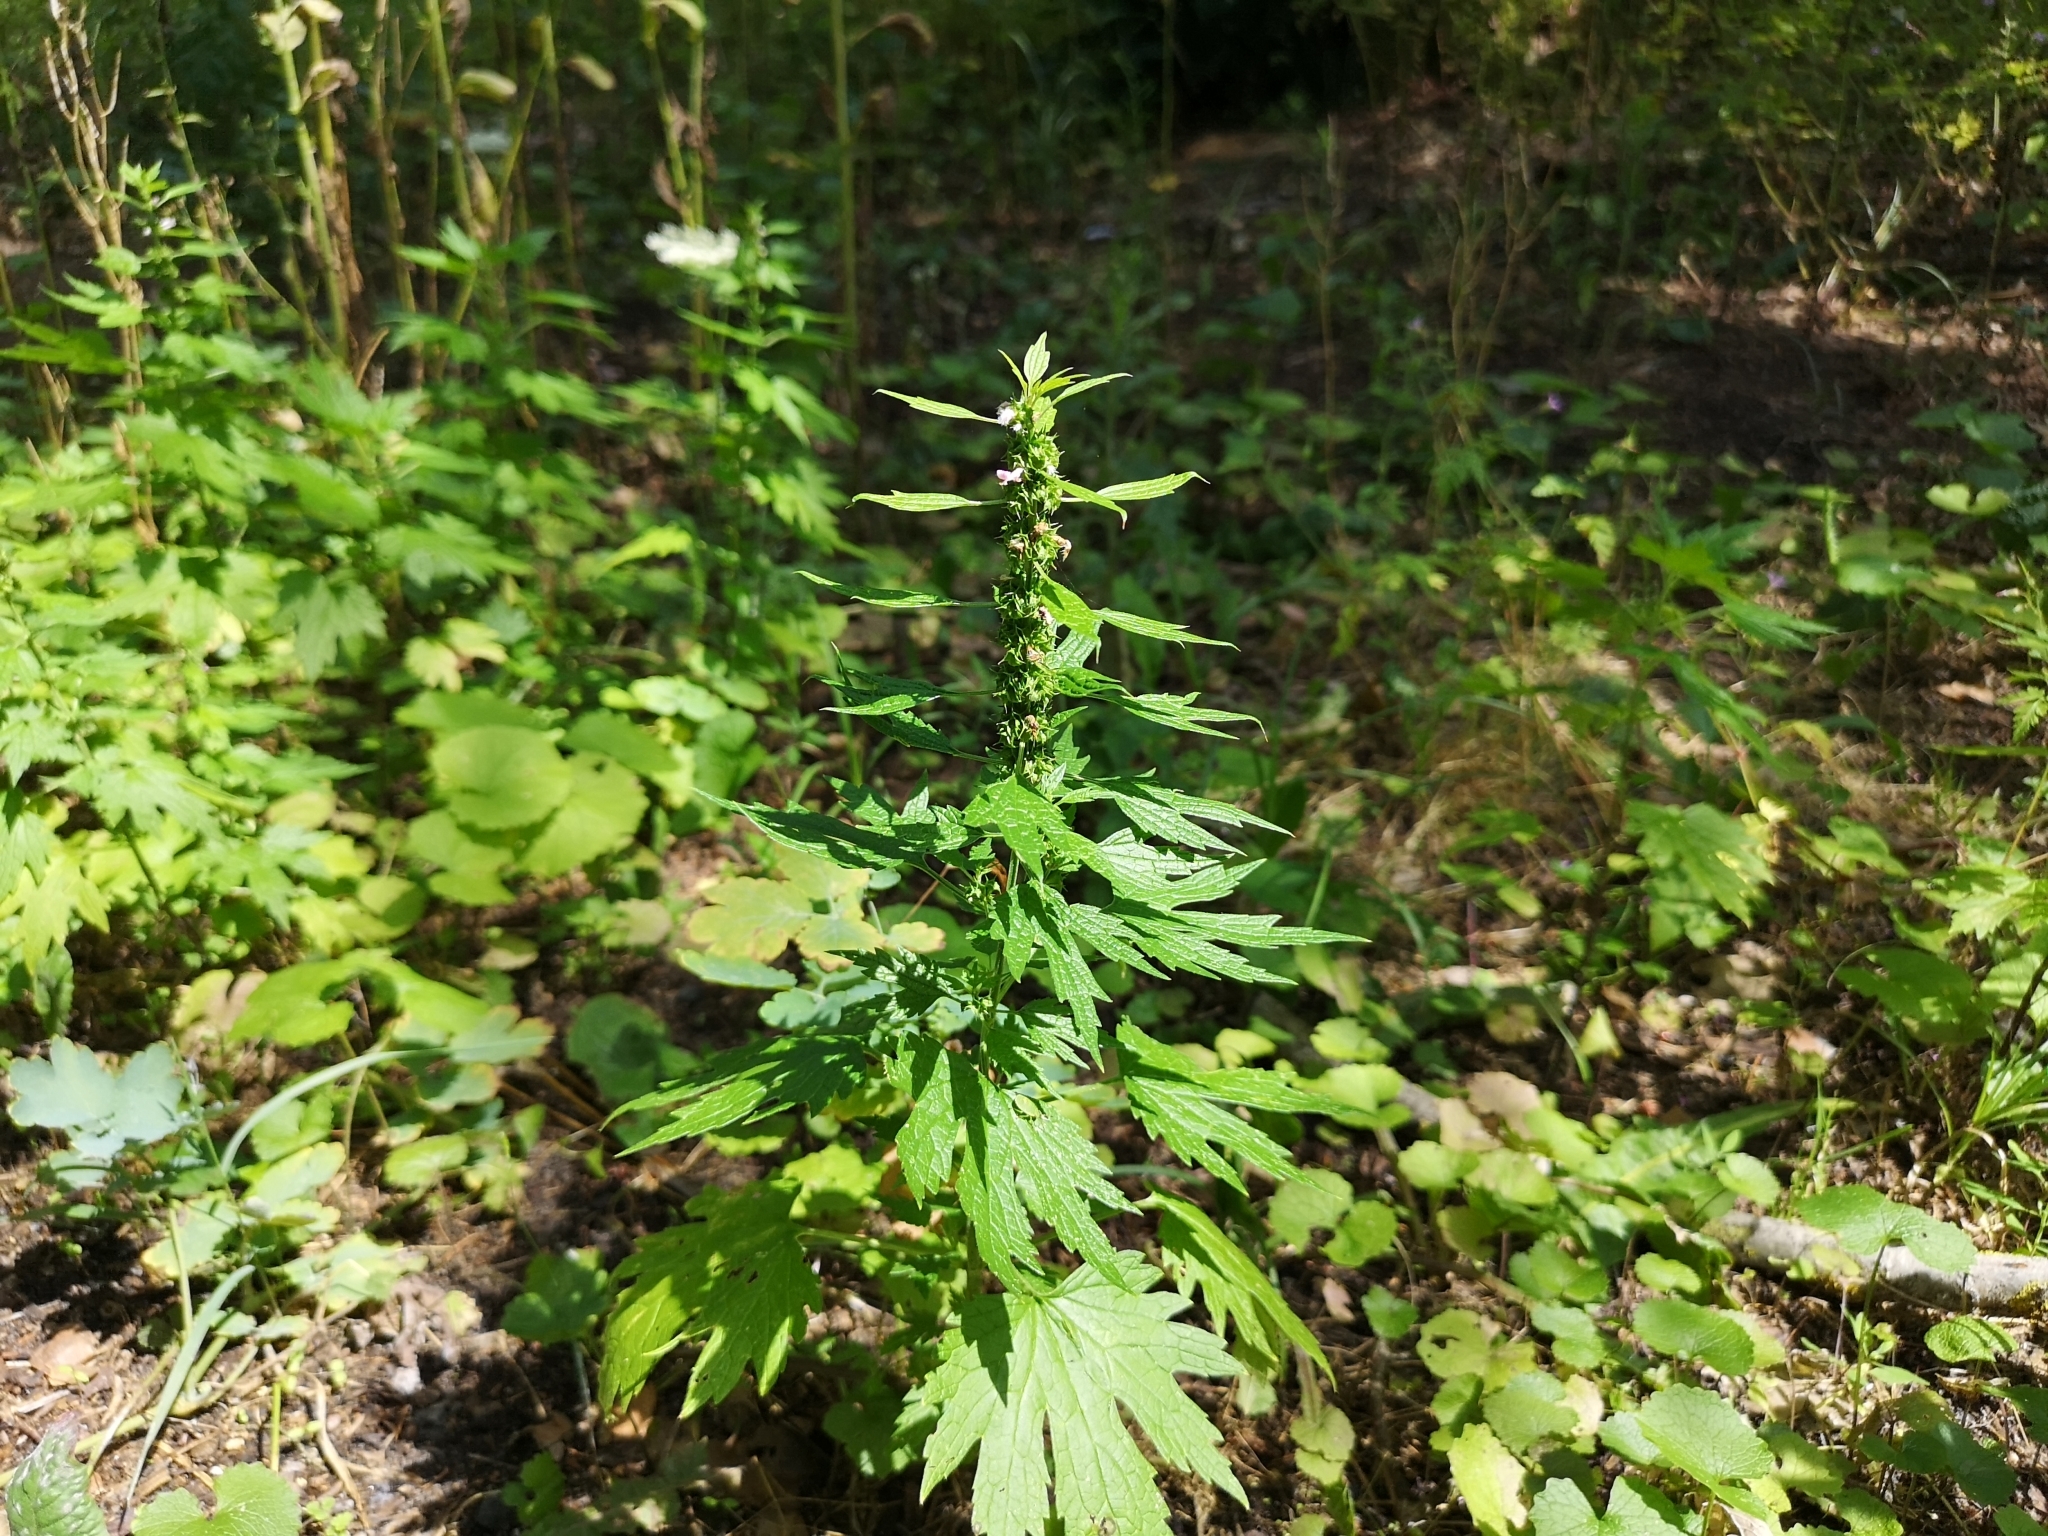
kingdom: Plantae
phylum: Tracheophyta
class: Magnoliopsida
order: Lamiales
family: Lamiaceae
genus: Leonurus
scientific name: Leonurus cardiaca
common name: Motherwort
